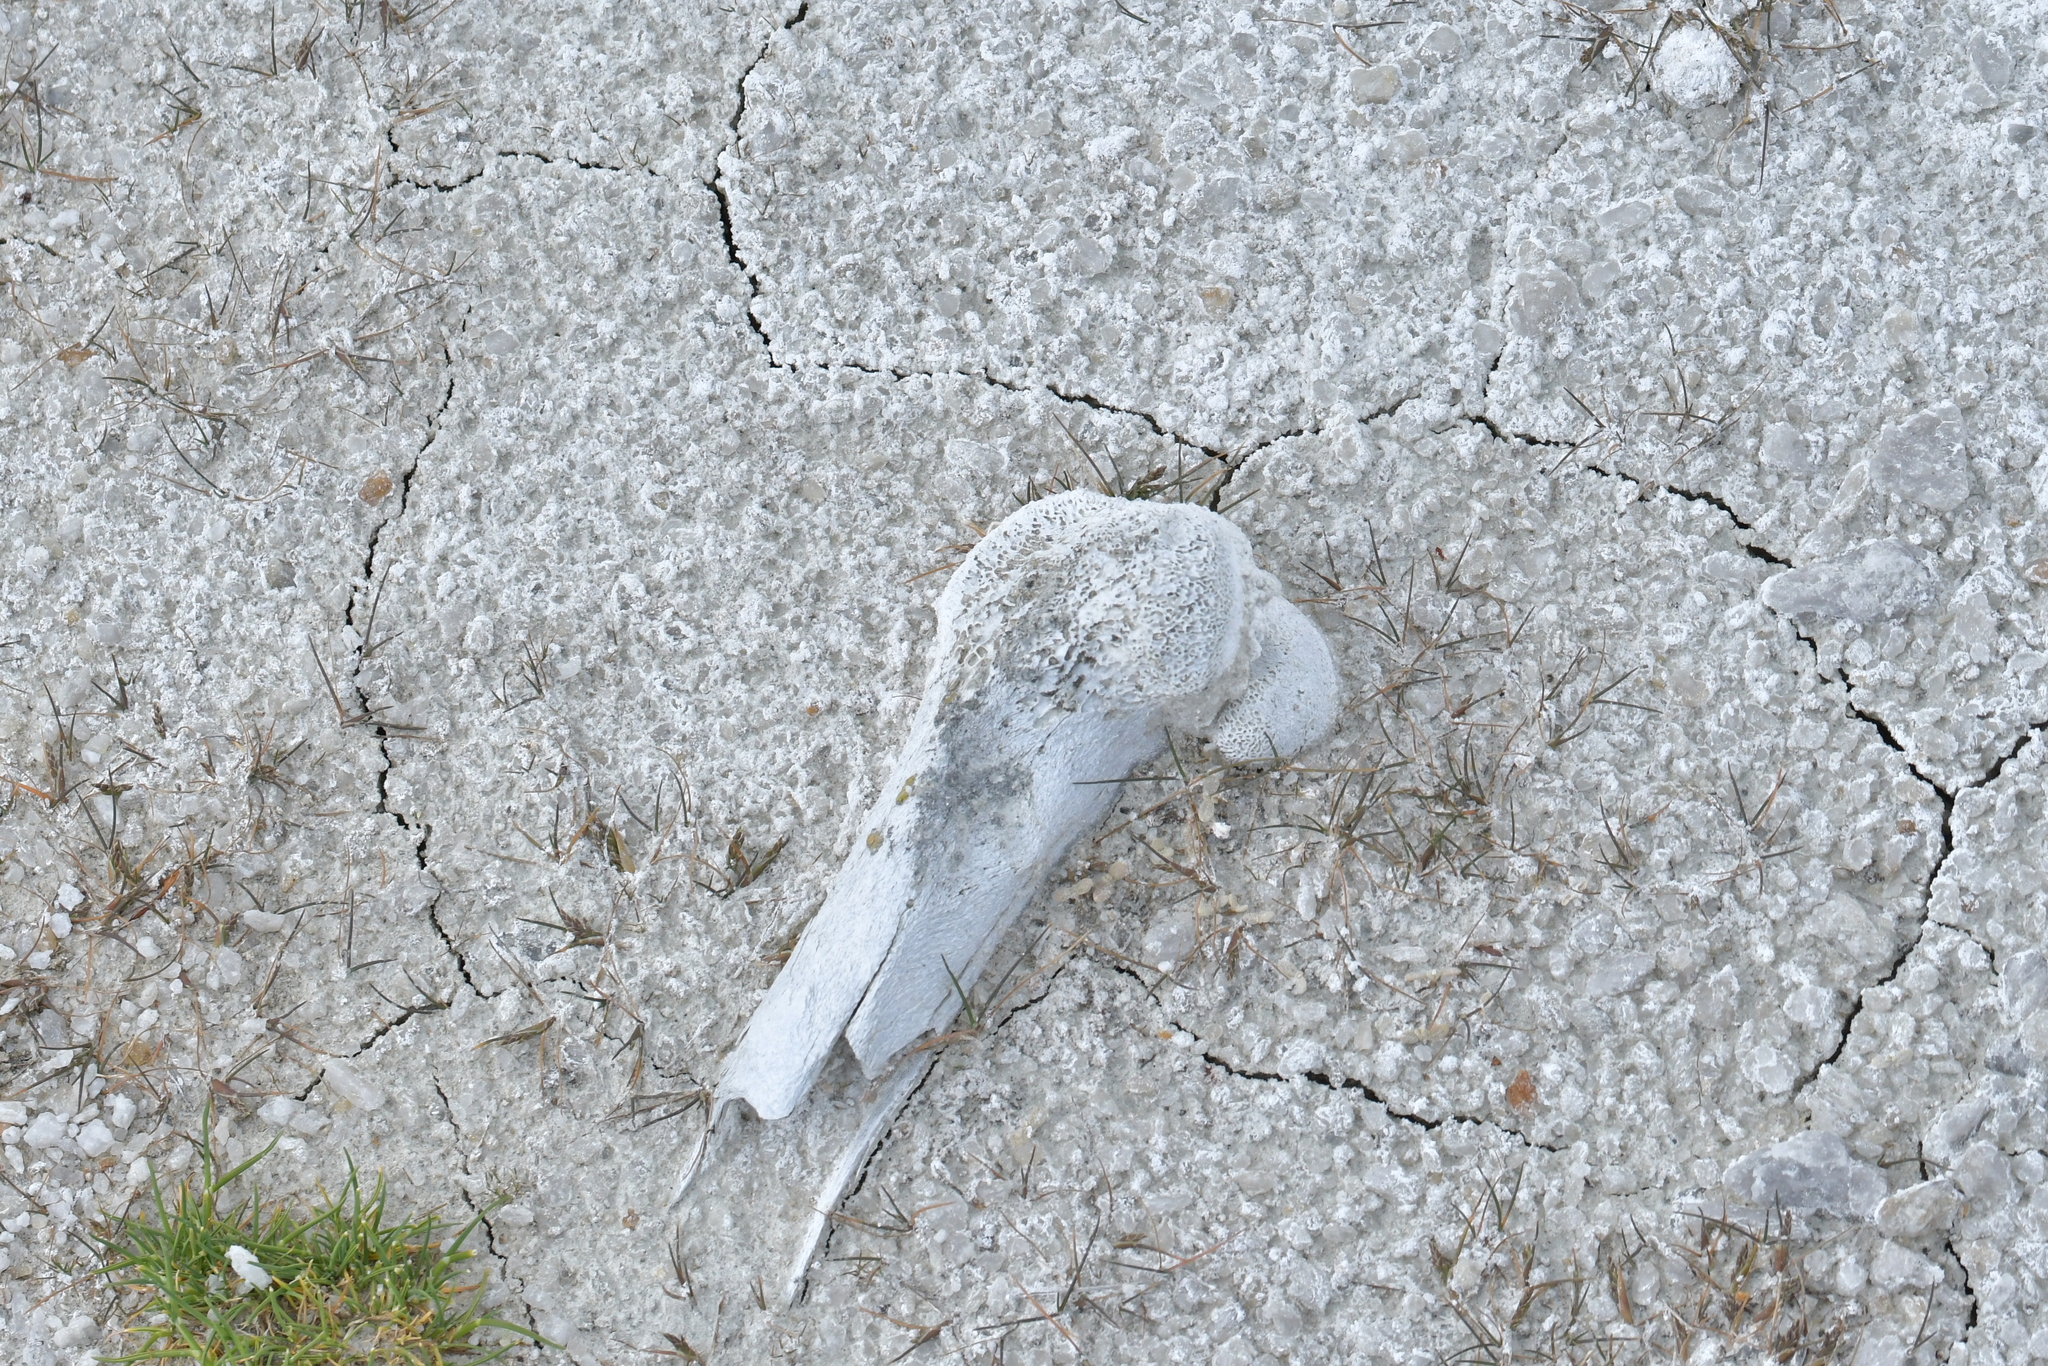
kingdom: Animalia
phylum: Chordata
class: Mammalia
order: Artiodactyla
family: Bovidae
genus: Ovis
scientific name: Ovis aries
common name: Domestic sheep
